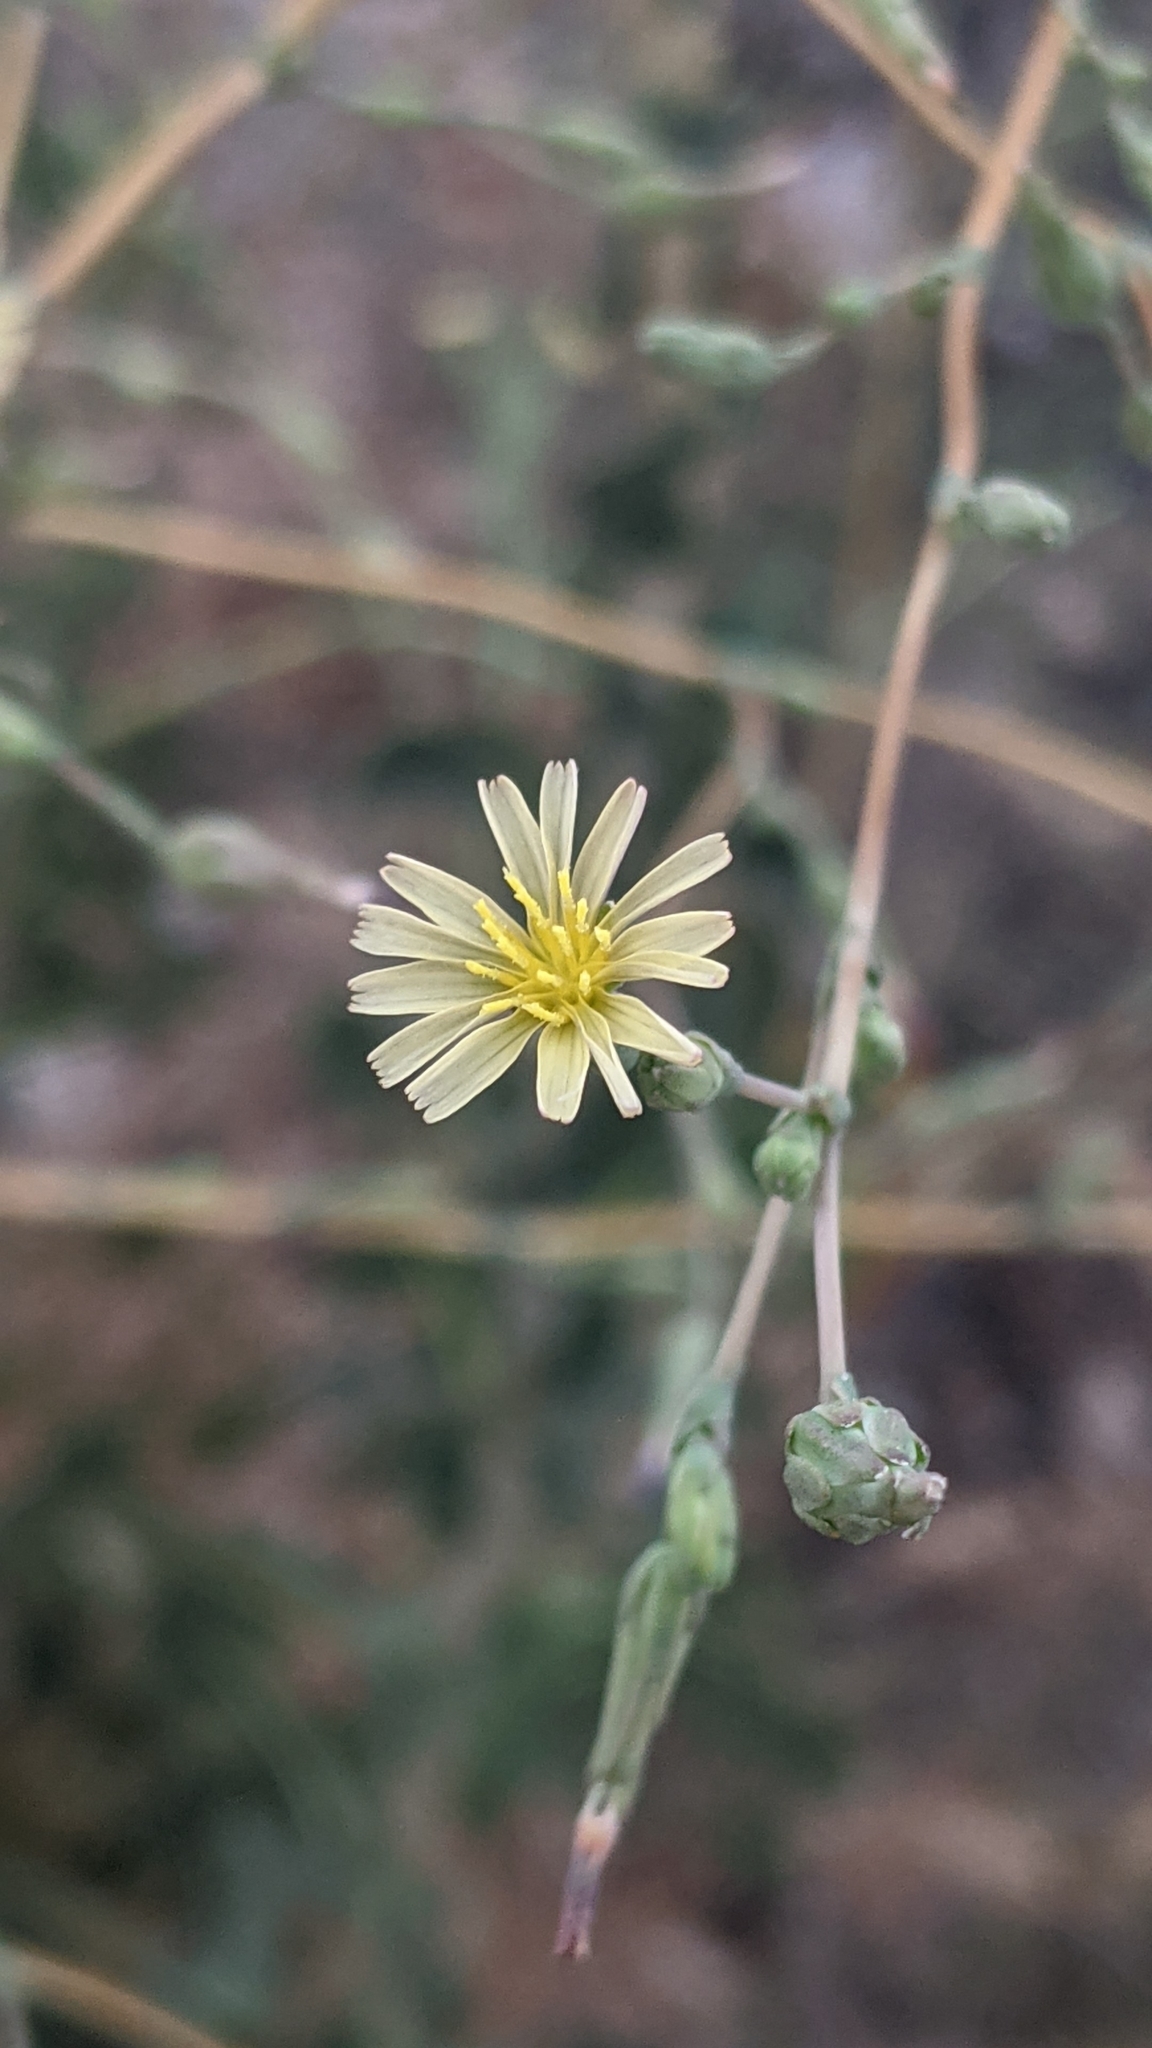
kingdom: Plantae
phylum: Tracheophyta
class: Magnoliopsida
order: Asterales
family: Asteraceae
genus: Lactuca
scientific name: Lactuca serriola
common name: Prickly lettuce
